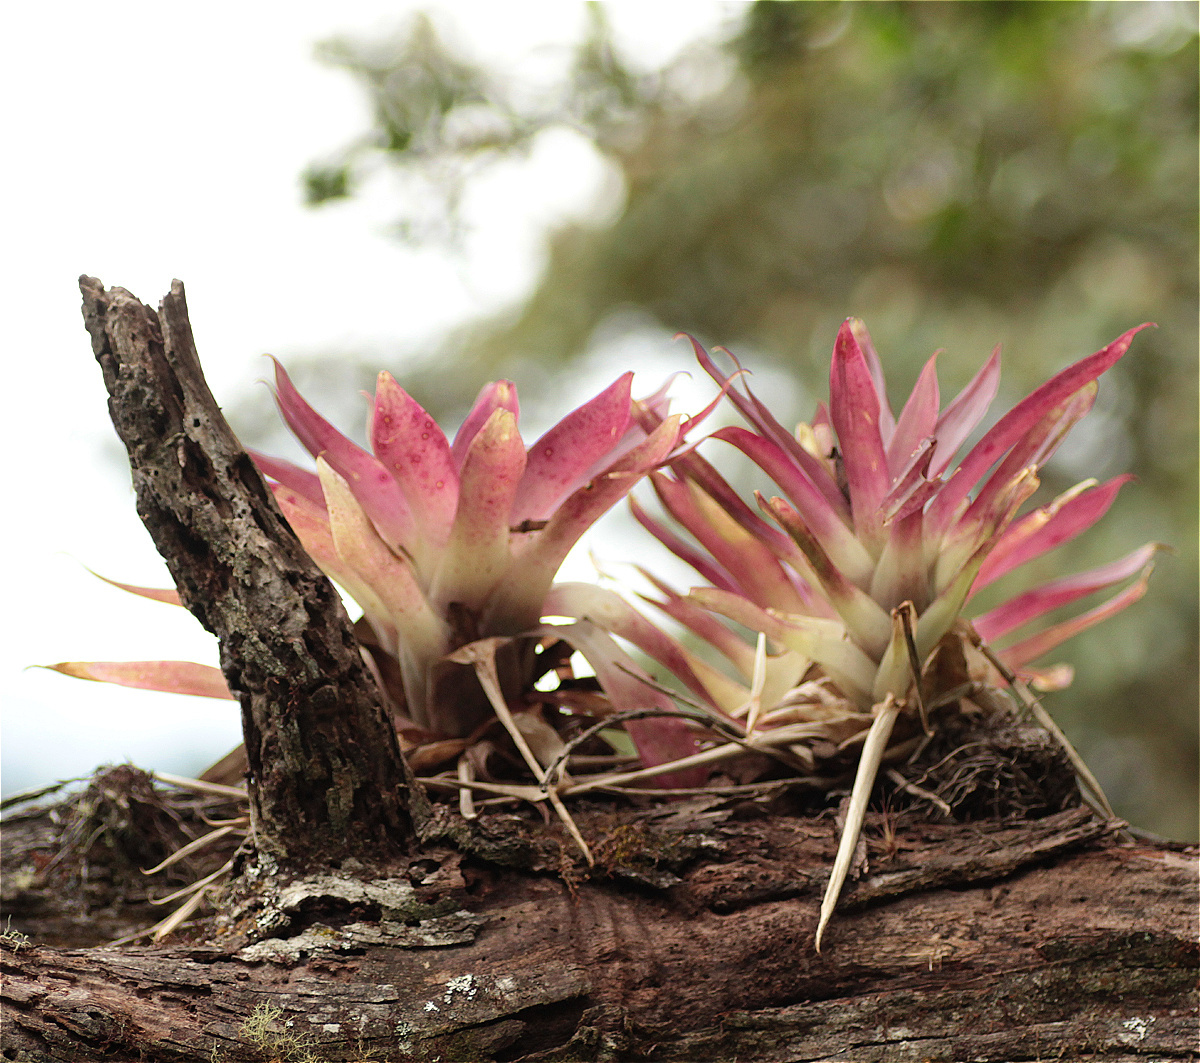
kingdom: Plantae
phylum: Tracheophyta
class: Liliopsida
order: Poales
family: Bromeliaceae
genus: Tillandsia
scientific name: Tillandsia biflora
